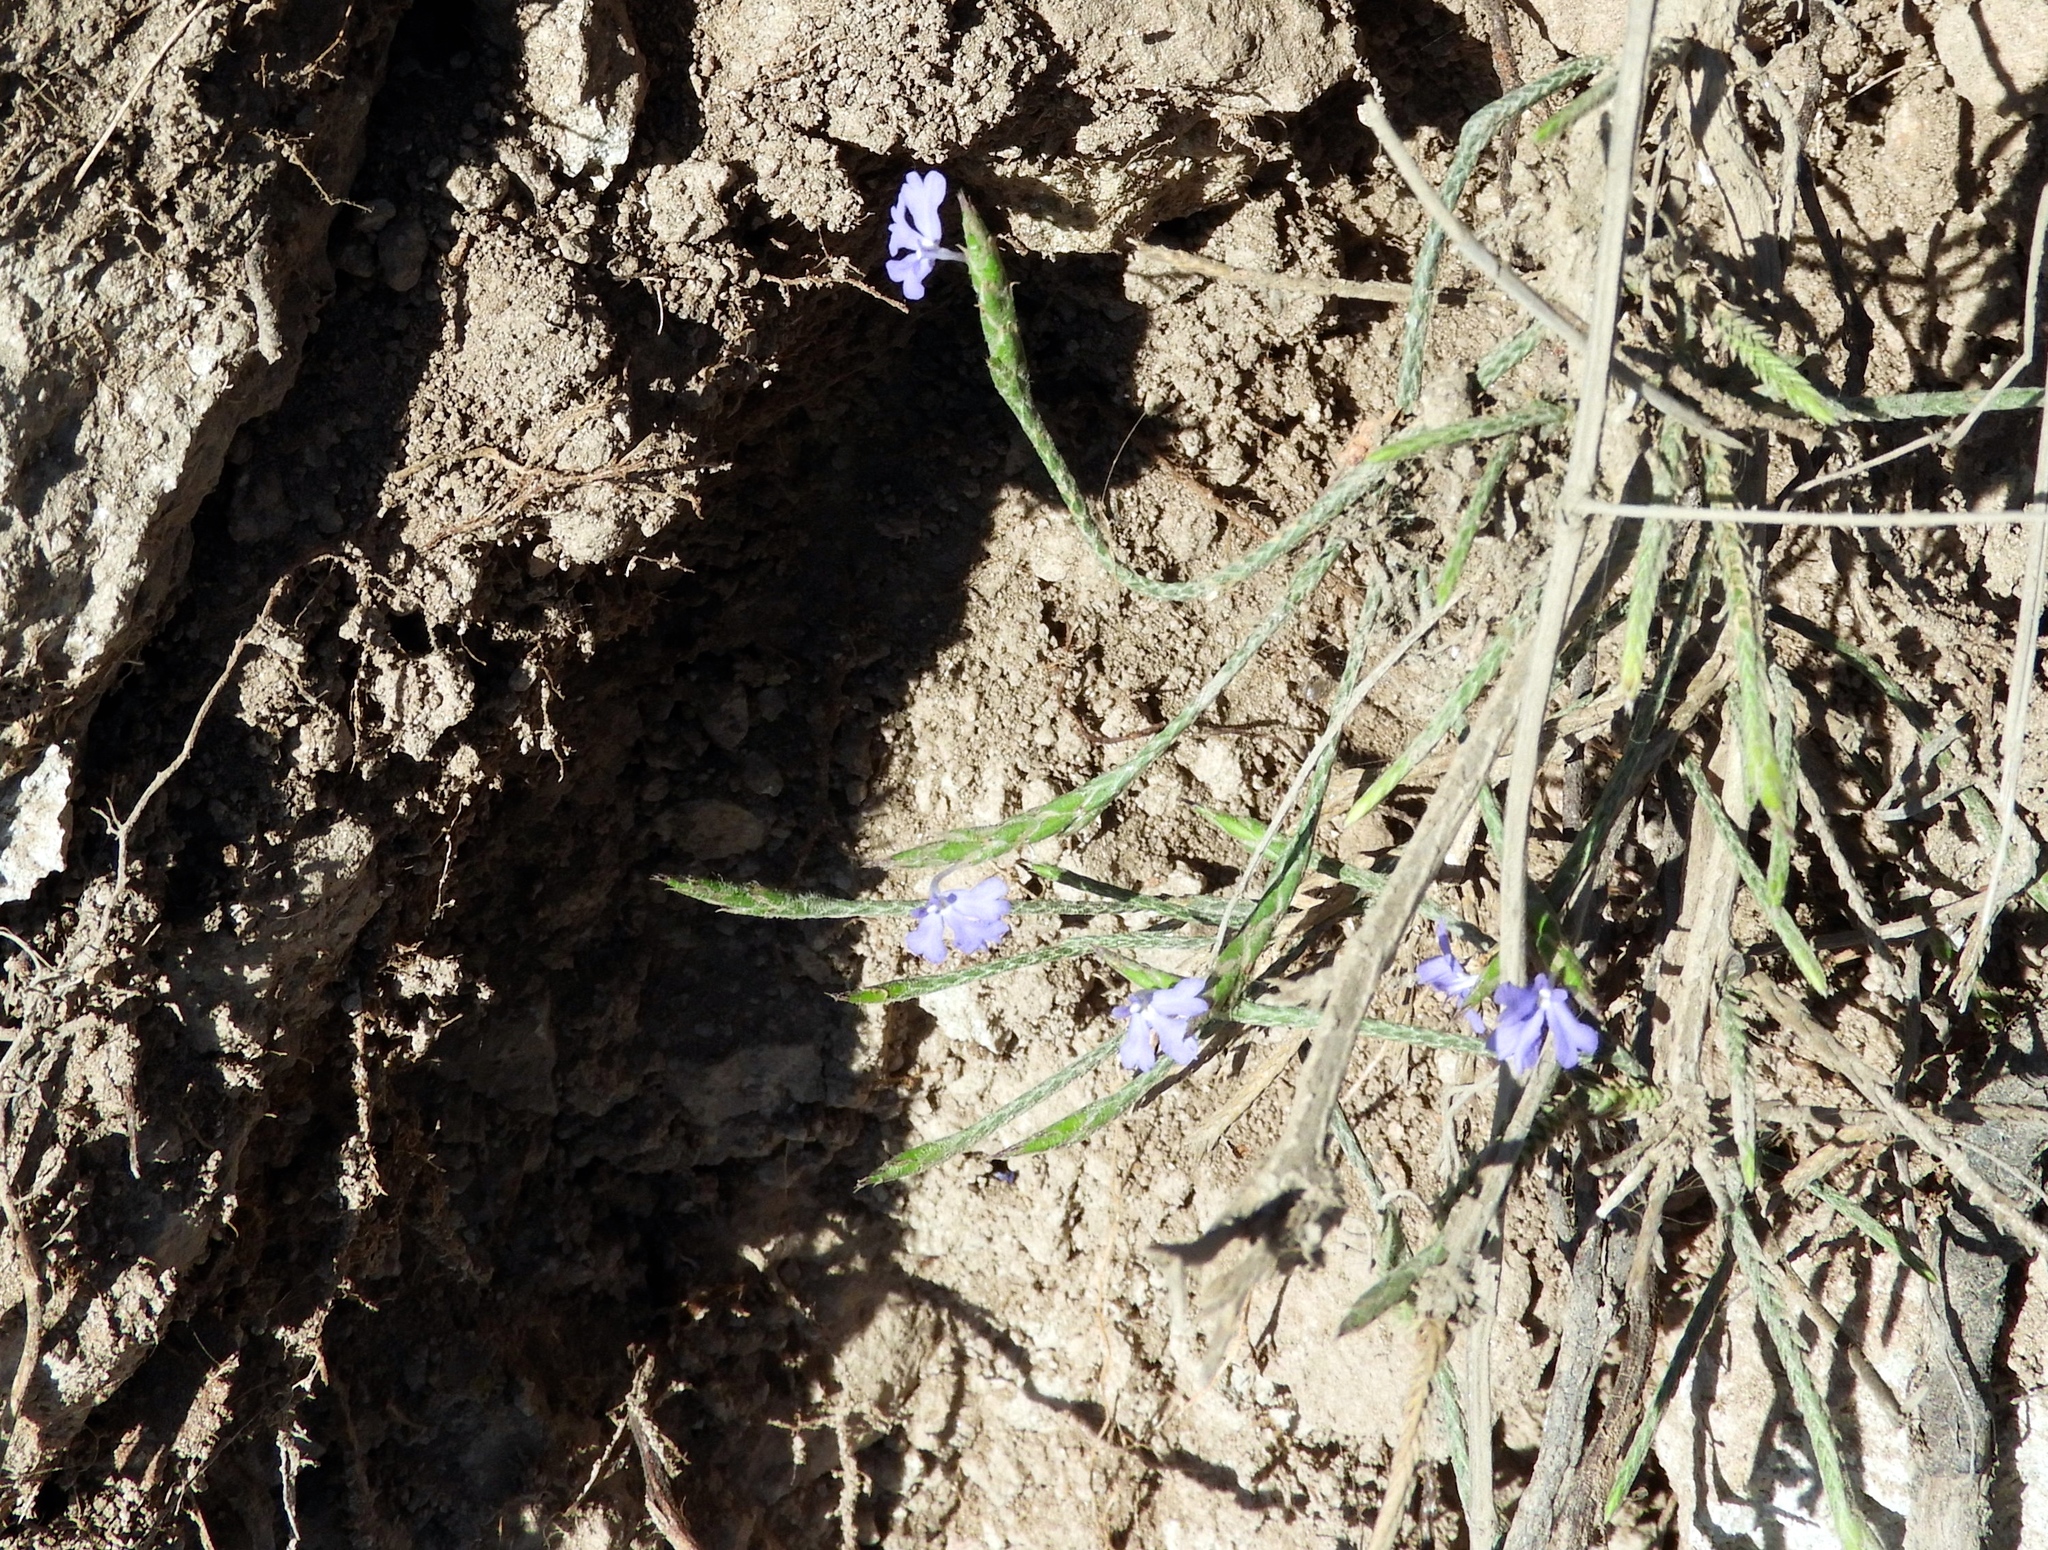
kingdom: Plantae
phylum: Tracheophyta
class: Magnoliopsida
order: Lamiales
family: Acanthaceae
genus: Elytraria
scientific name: Elytraria imbricata
